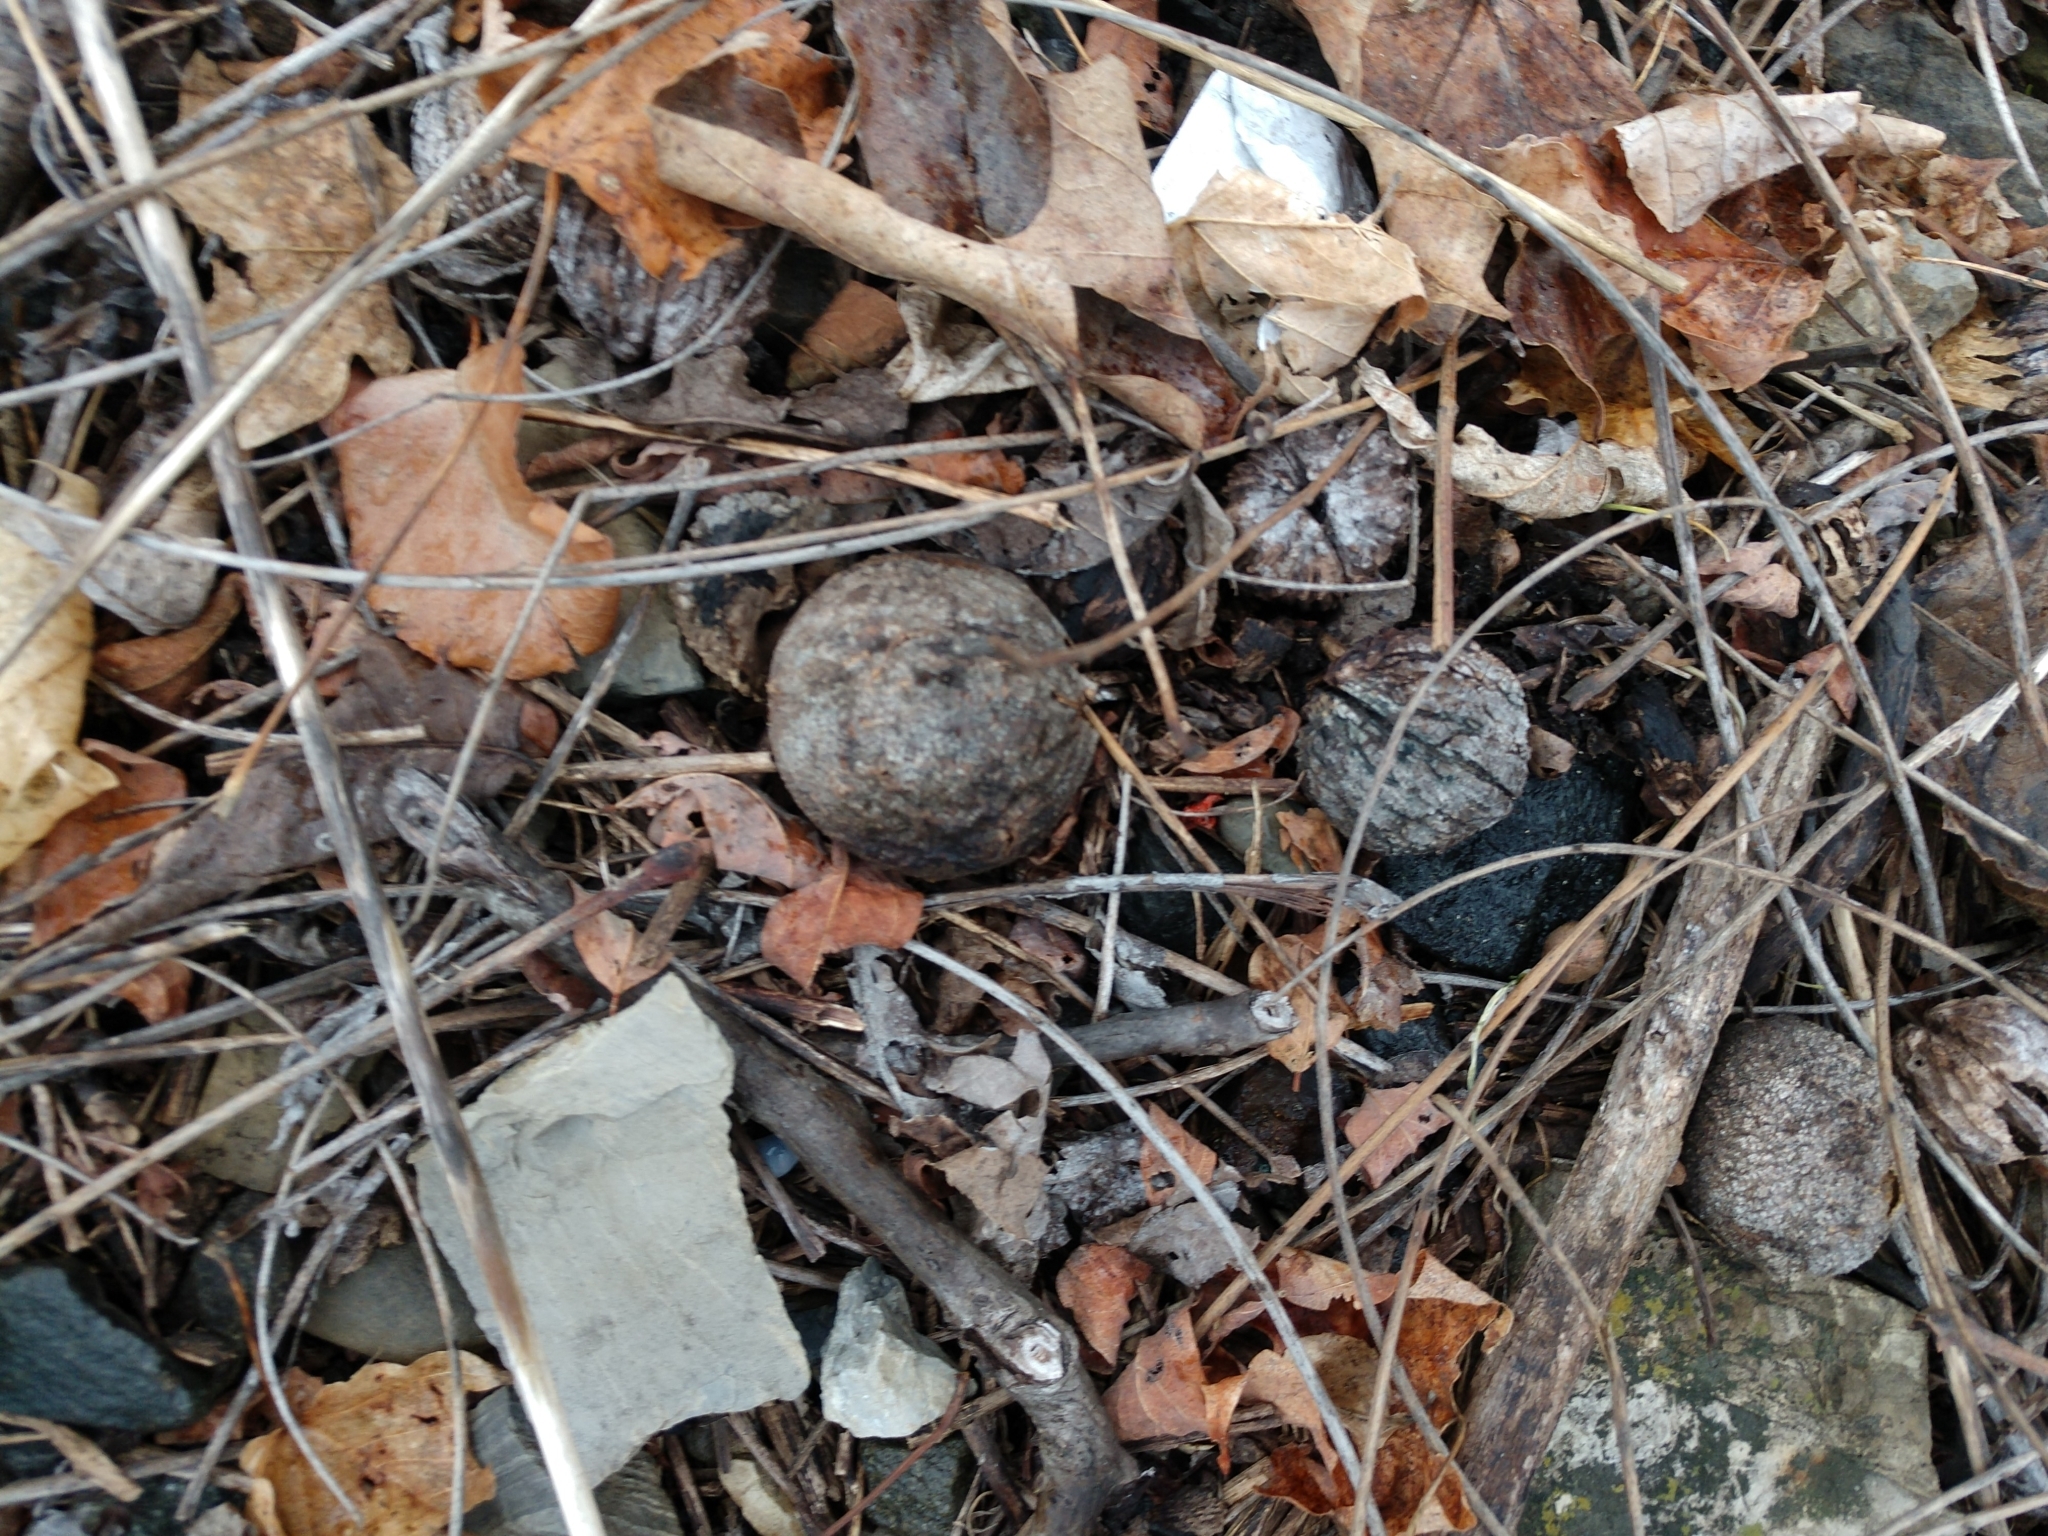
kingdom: Plantae
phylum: Tracheophyta
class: Magnoliopsida
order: Fagales
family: Juglandaceae
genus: Juglans
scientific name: Juglans nigra
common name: Black walnut
